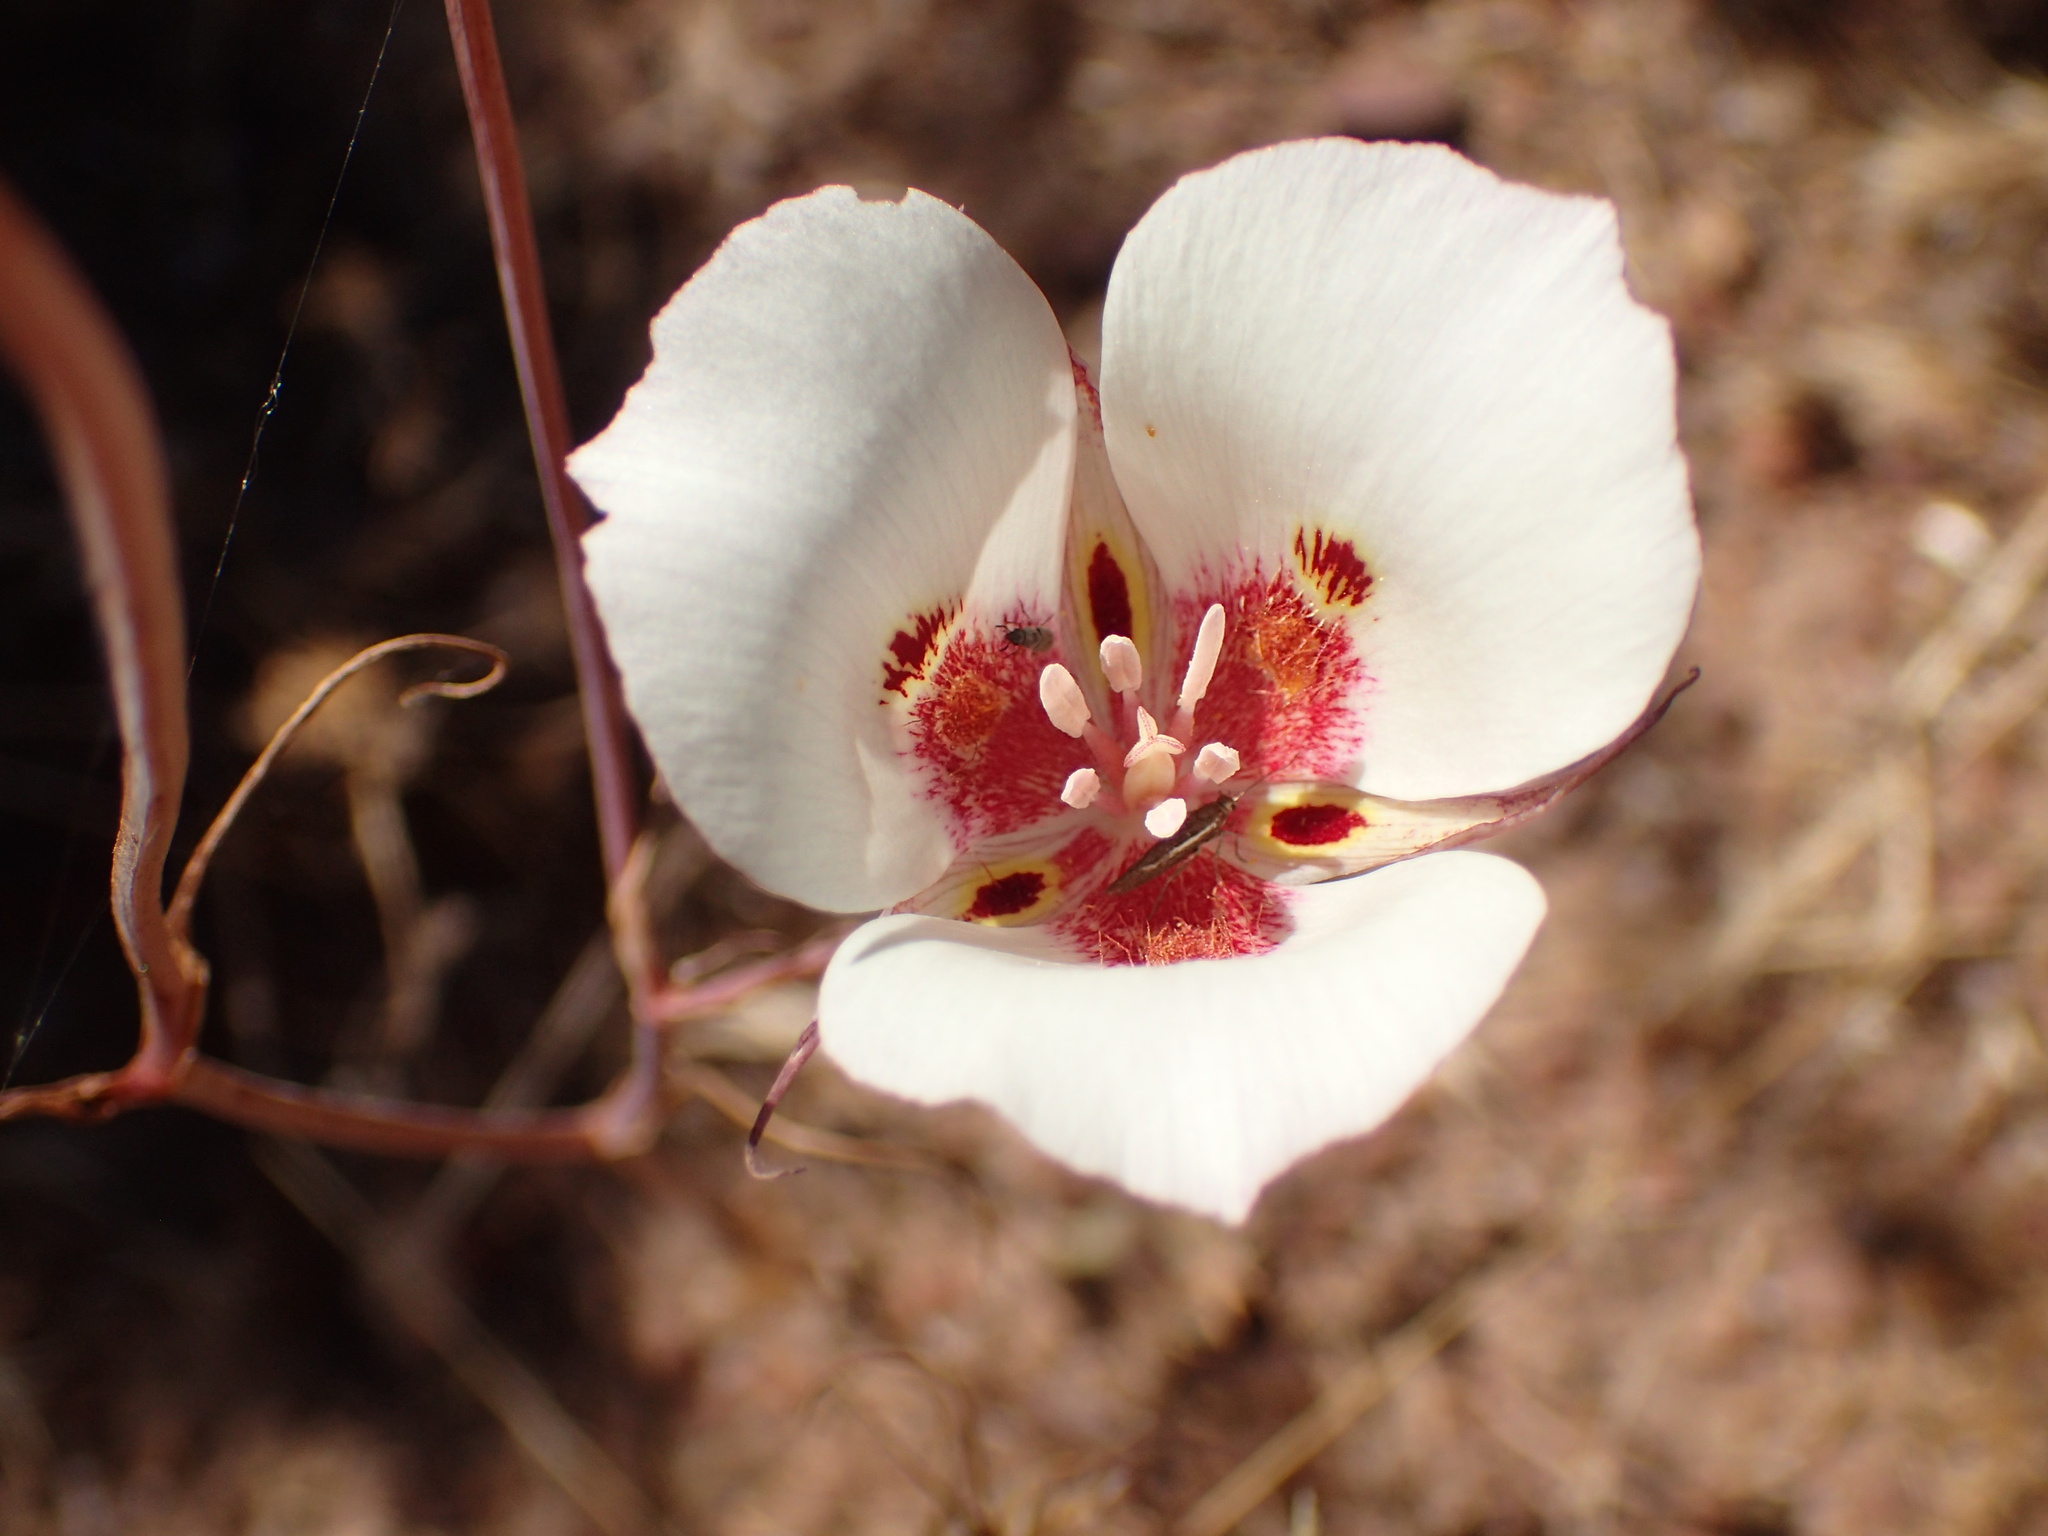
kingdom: Plantae
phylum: Tracheophyta
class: Liliopsida
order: Liliales
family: Liliaceae
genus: Calochortus
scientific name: Calochortus venustus
